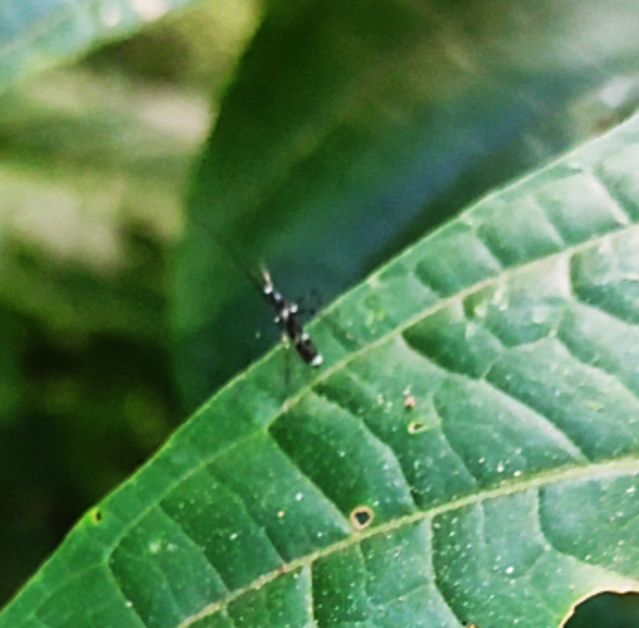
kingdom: Animalia
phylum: Arthropoda
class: Insecta
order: Diptera
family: Limoniidae
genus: Gymnastes
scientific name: Gymnastes perexquisitus
